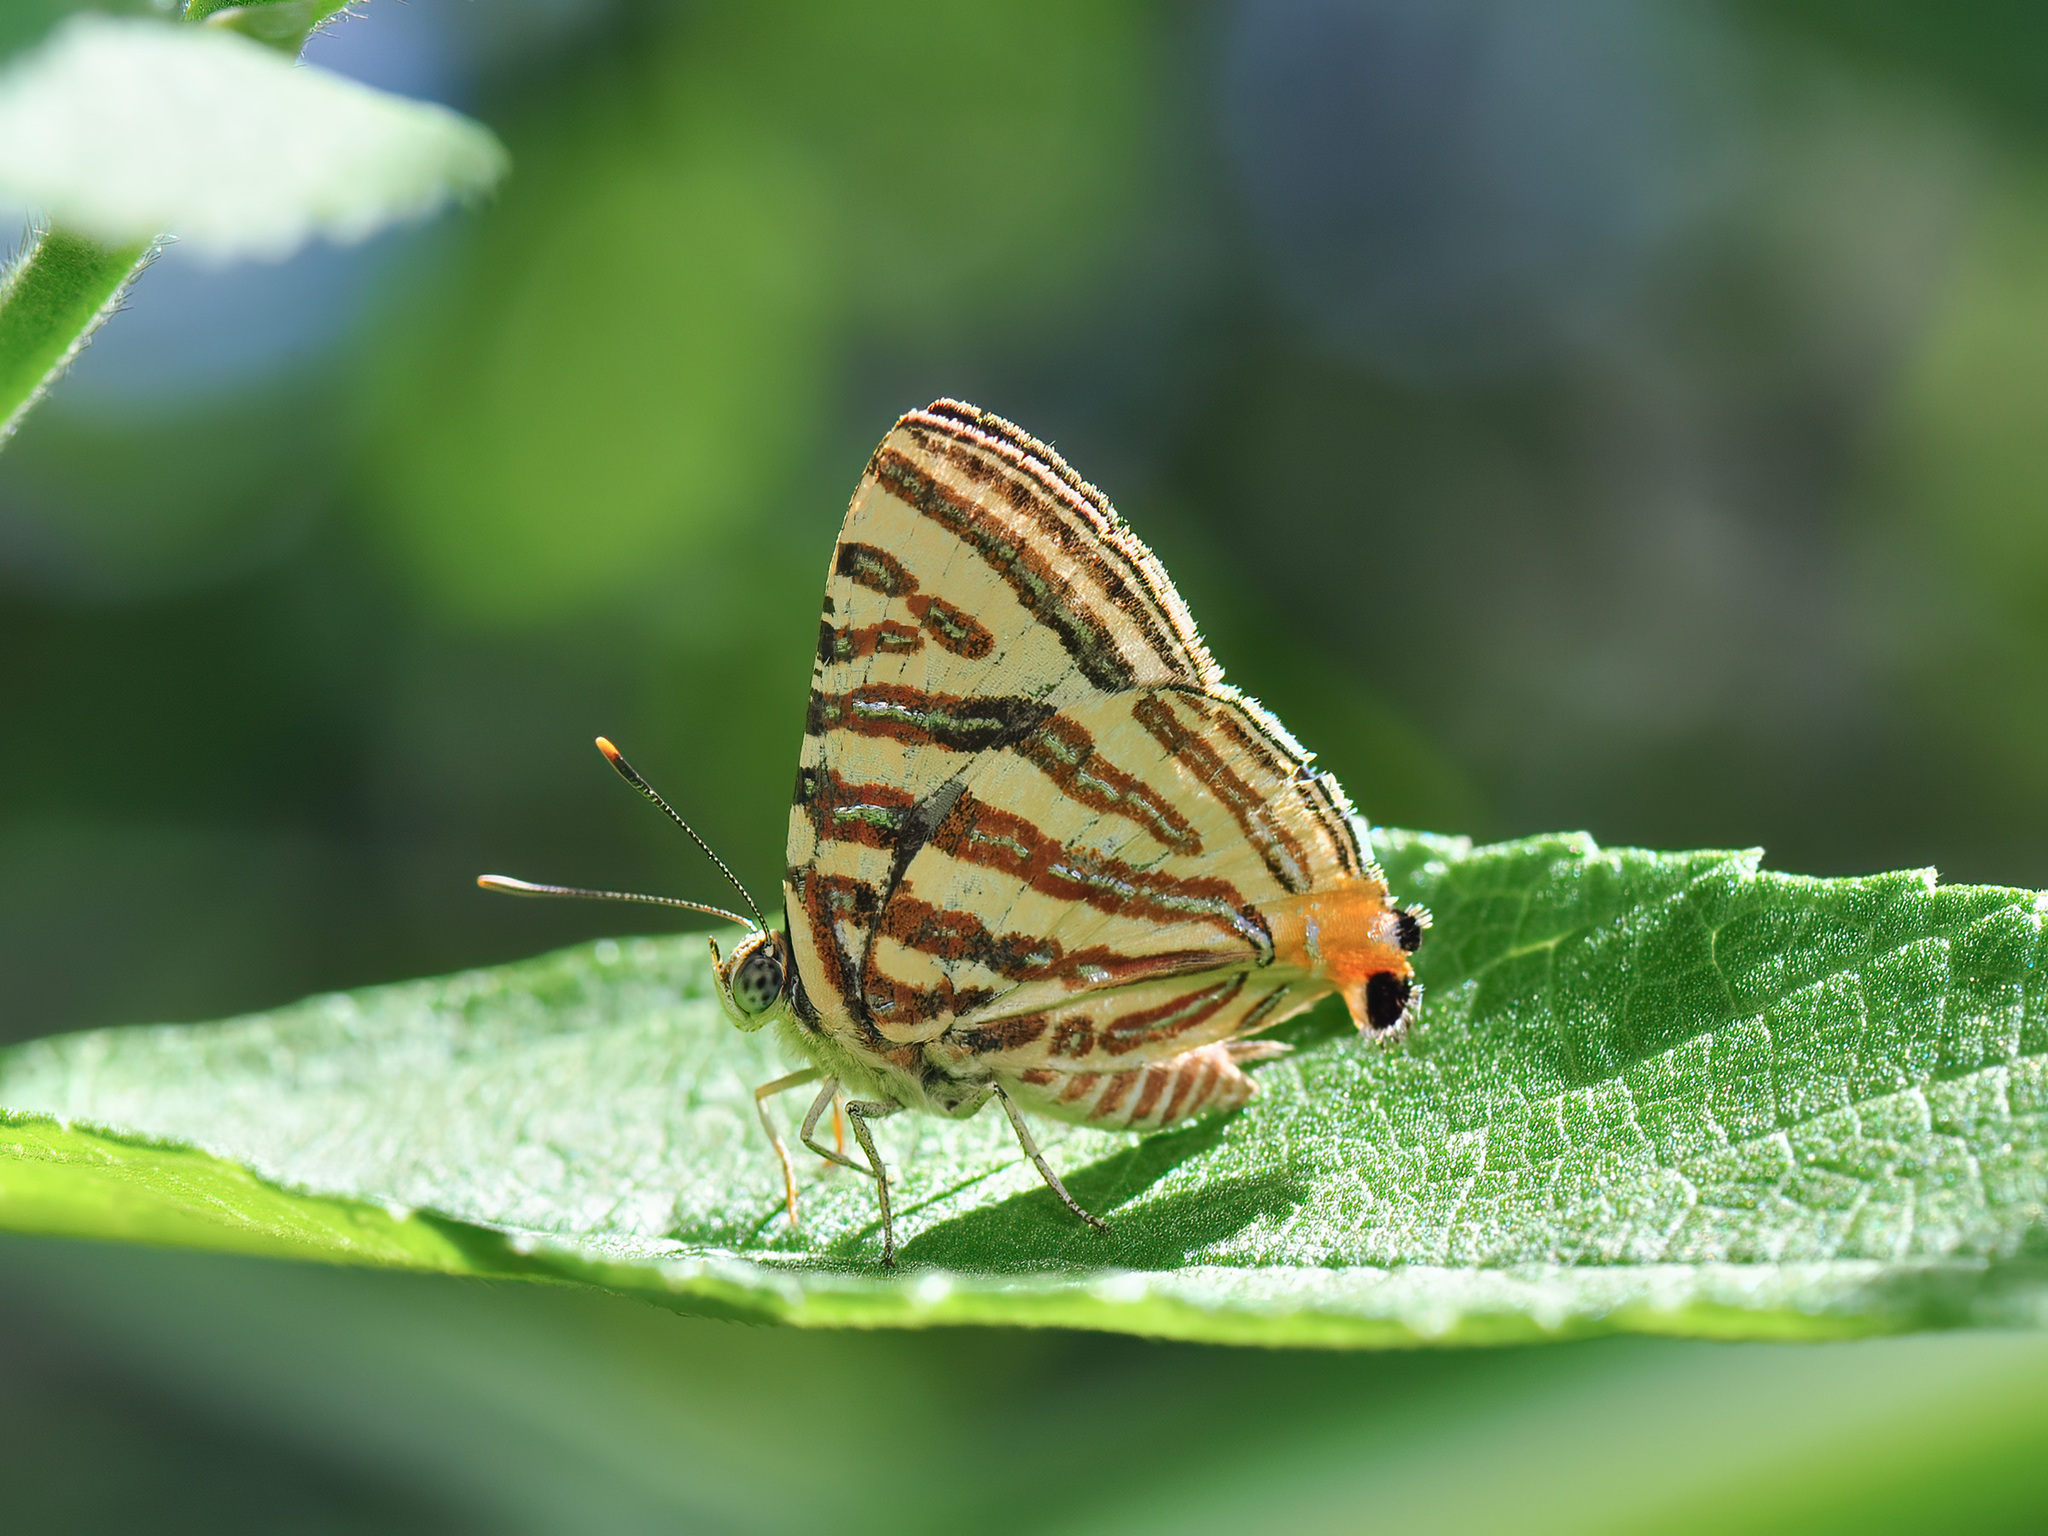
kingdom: Animalia
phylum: Arthropoda
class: Insecta
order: Lepidoptera
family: Lycaenidae
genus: Cigaritis
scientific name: Cigaritis lohita
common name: Long-banded silverline
